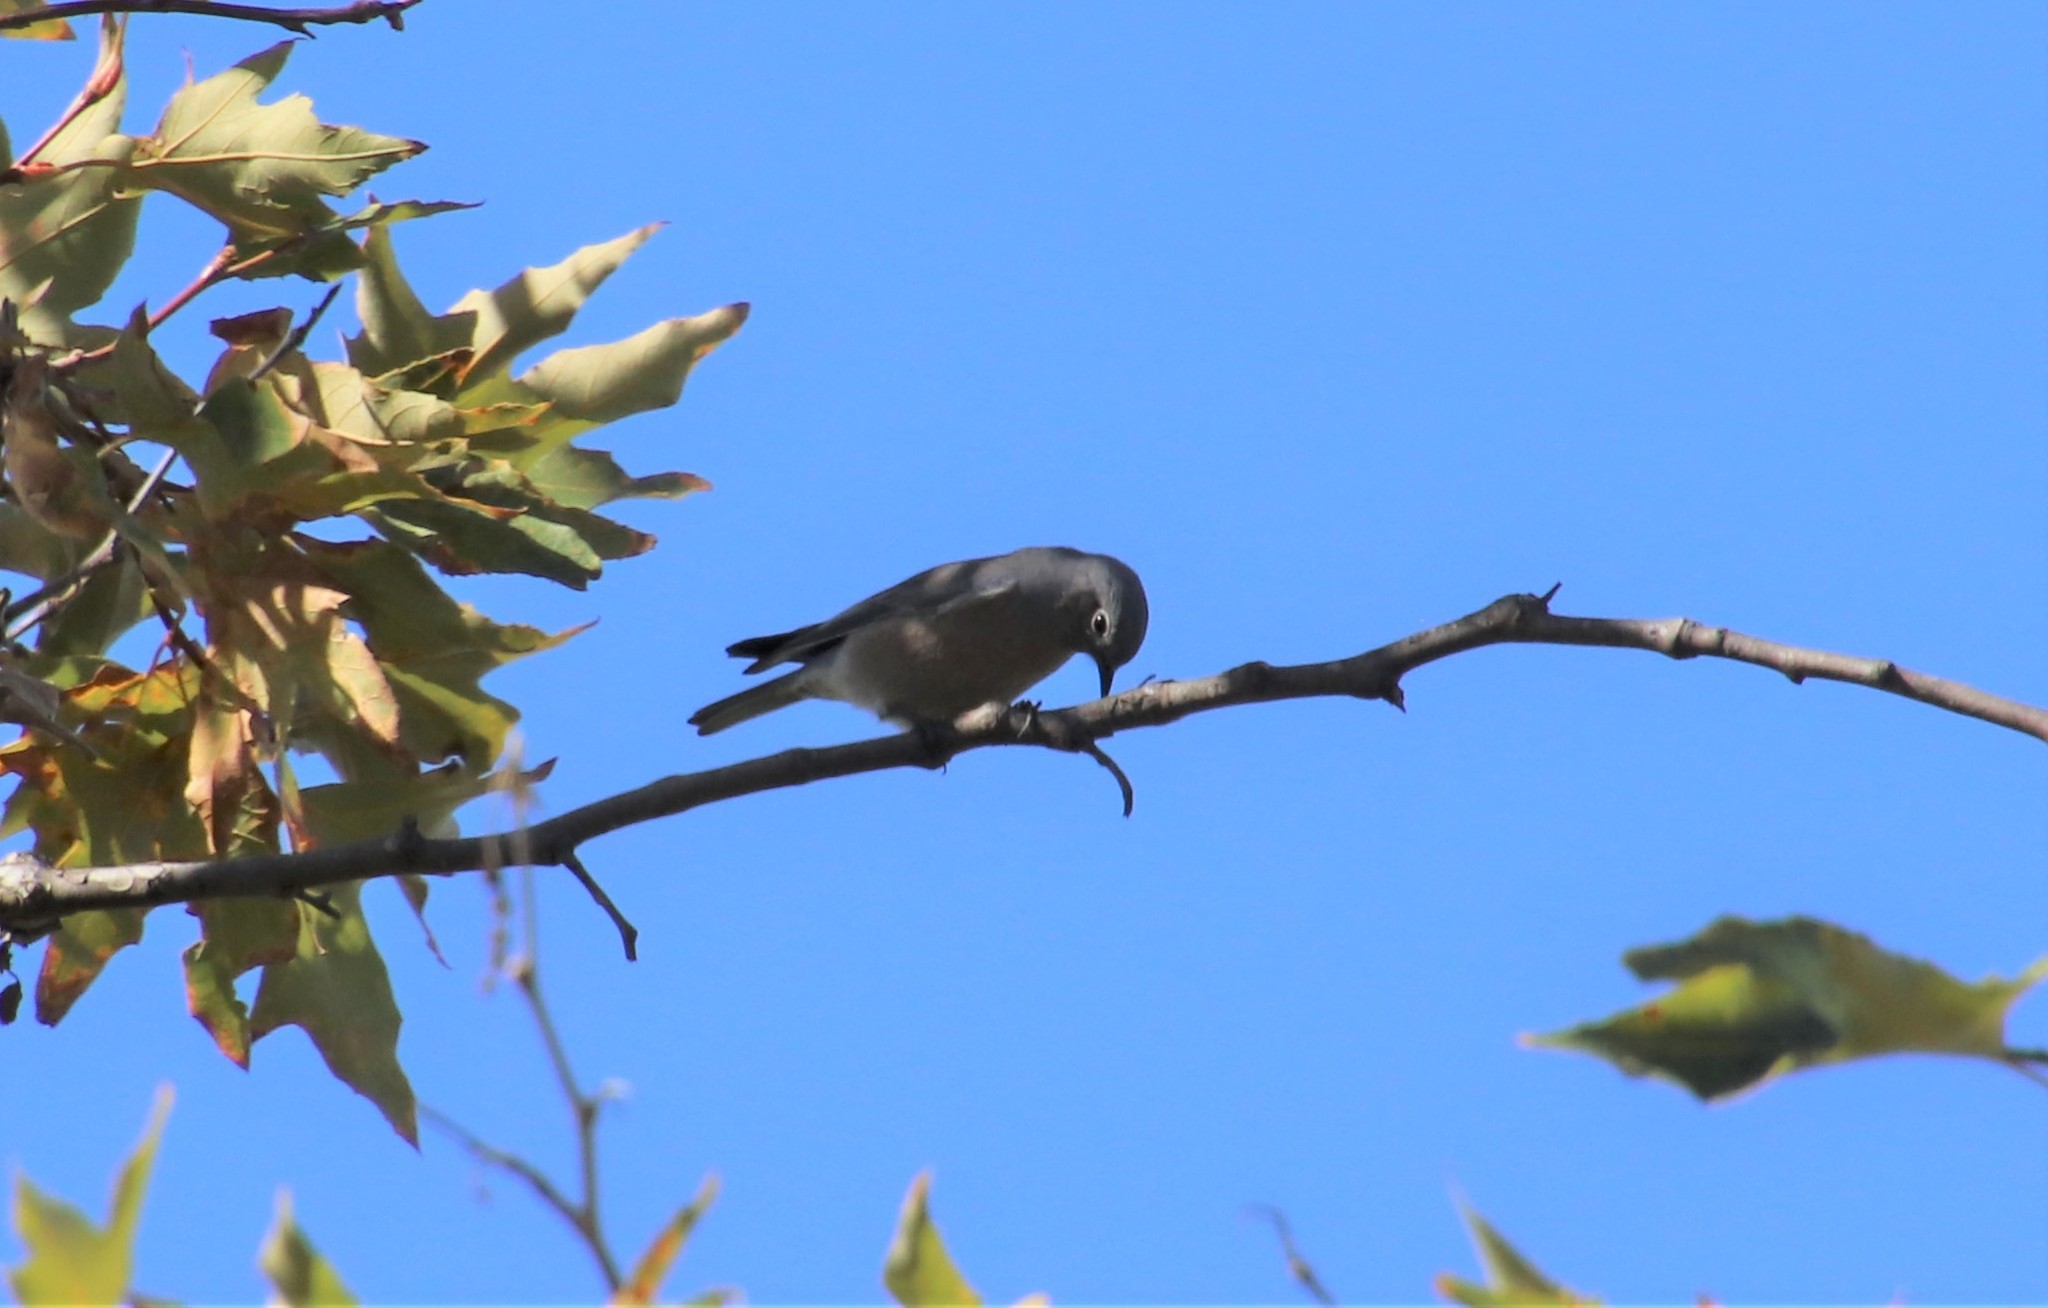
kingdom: Animalia
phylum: Chordata
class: Aves
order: Passeriformes
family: Turdidae
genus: Sialia
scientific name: Sialia mexicana
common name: Western bluebird
